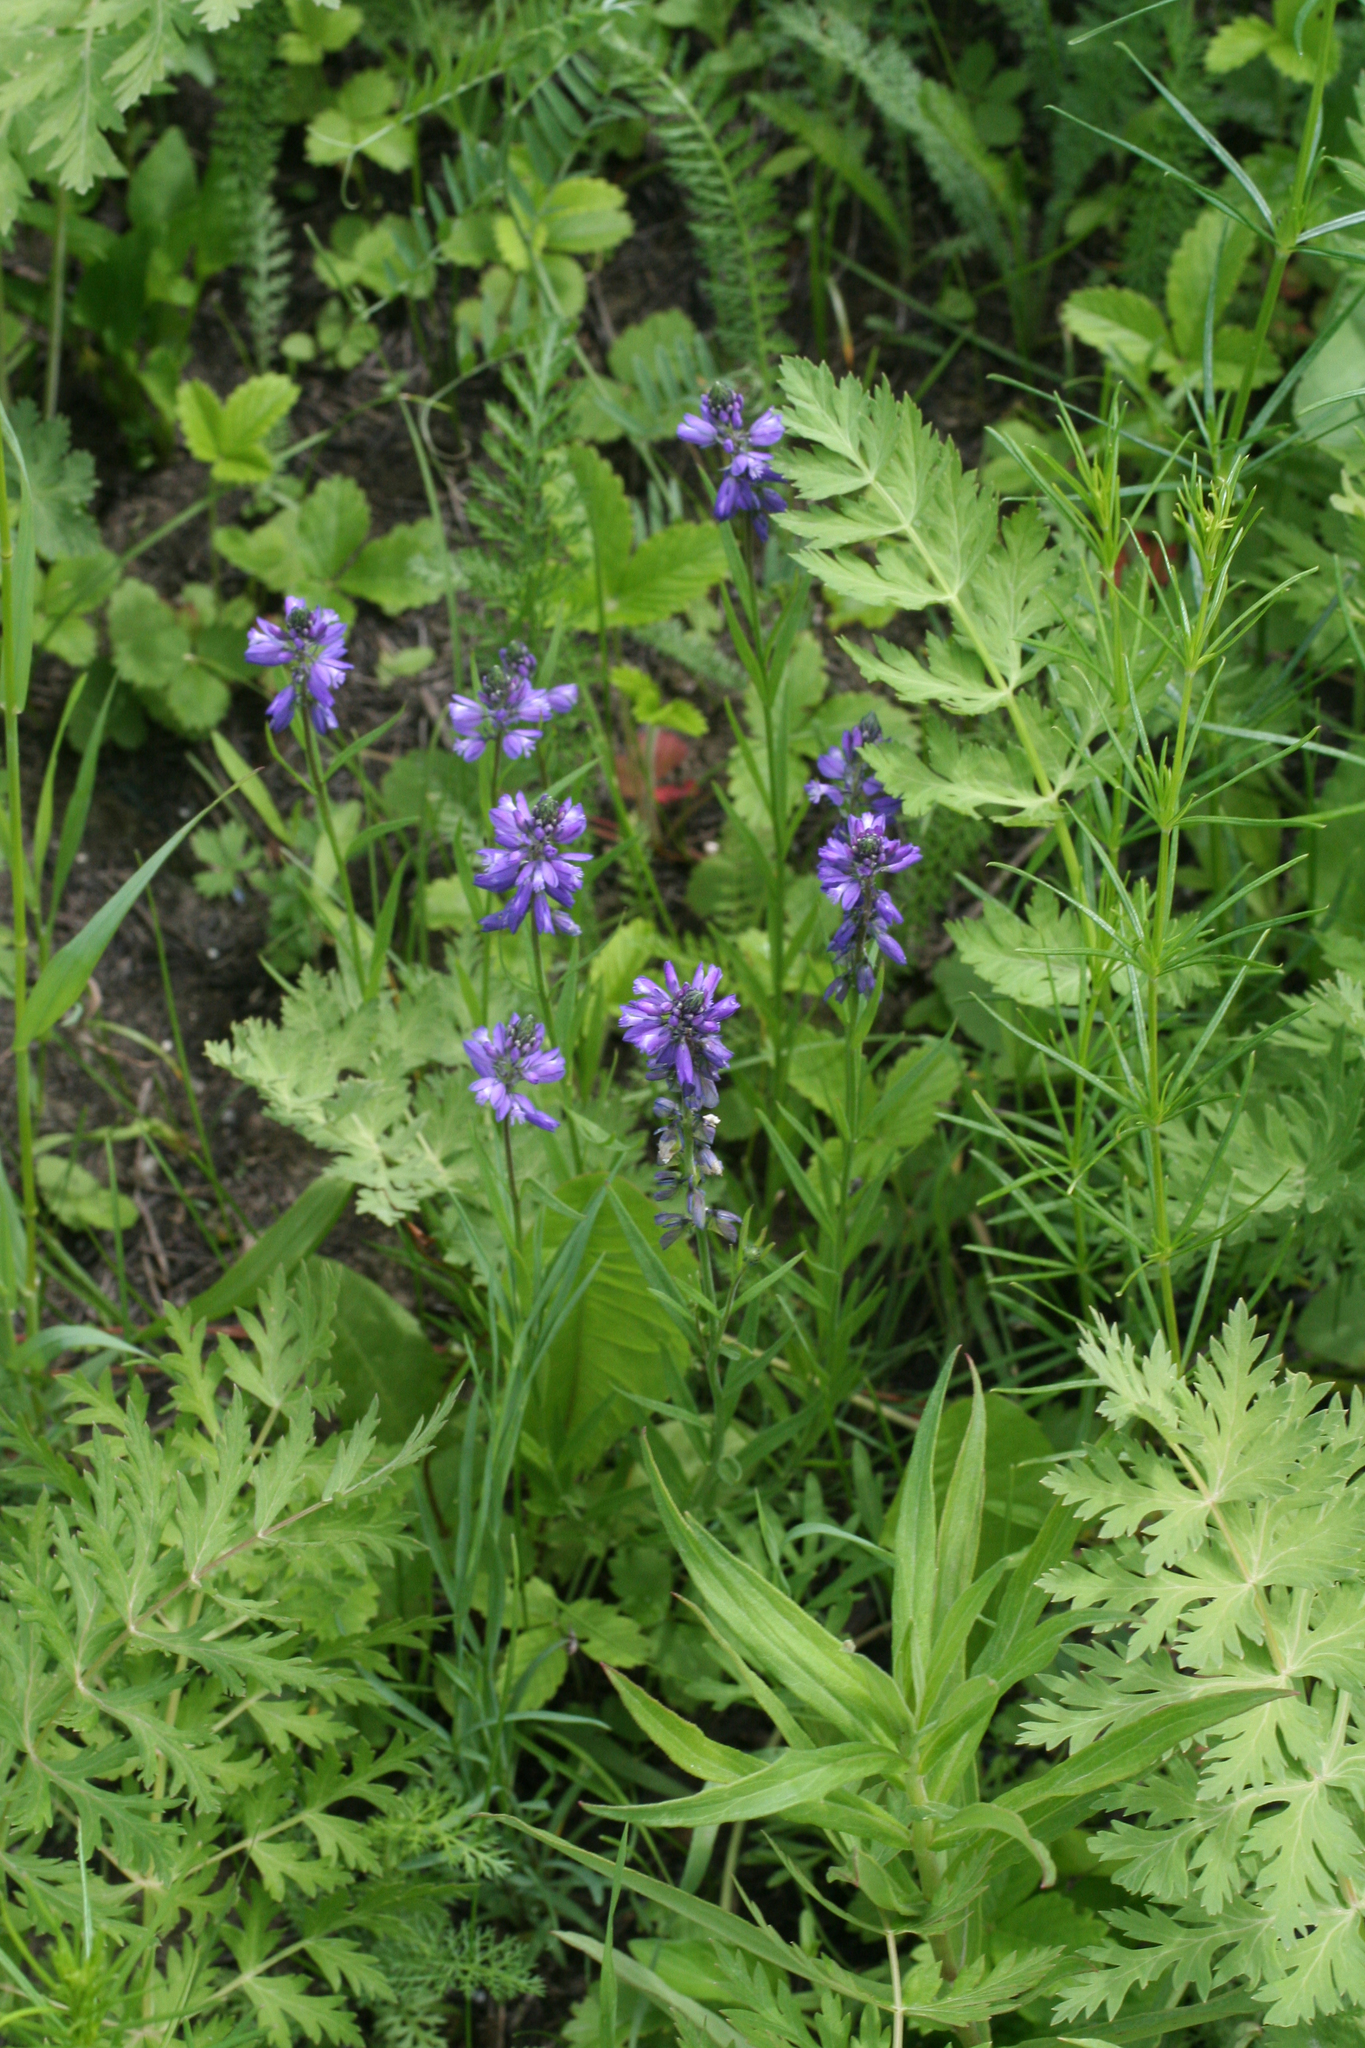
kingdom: Plantae
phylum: Tracheophyta
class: Magnoliopsida
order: Fabales
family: Polygalaceae
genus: Polygala
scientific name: Polygala comosa
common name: Tufted milkwort
